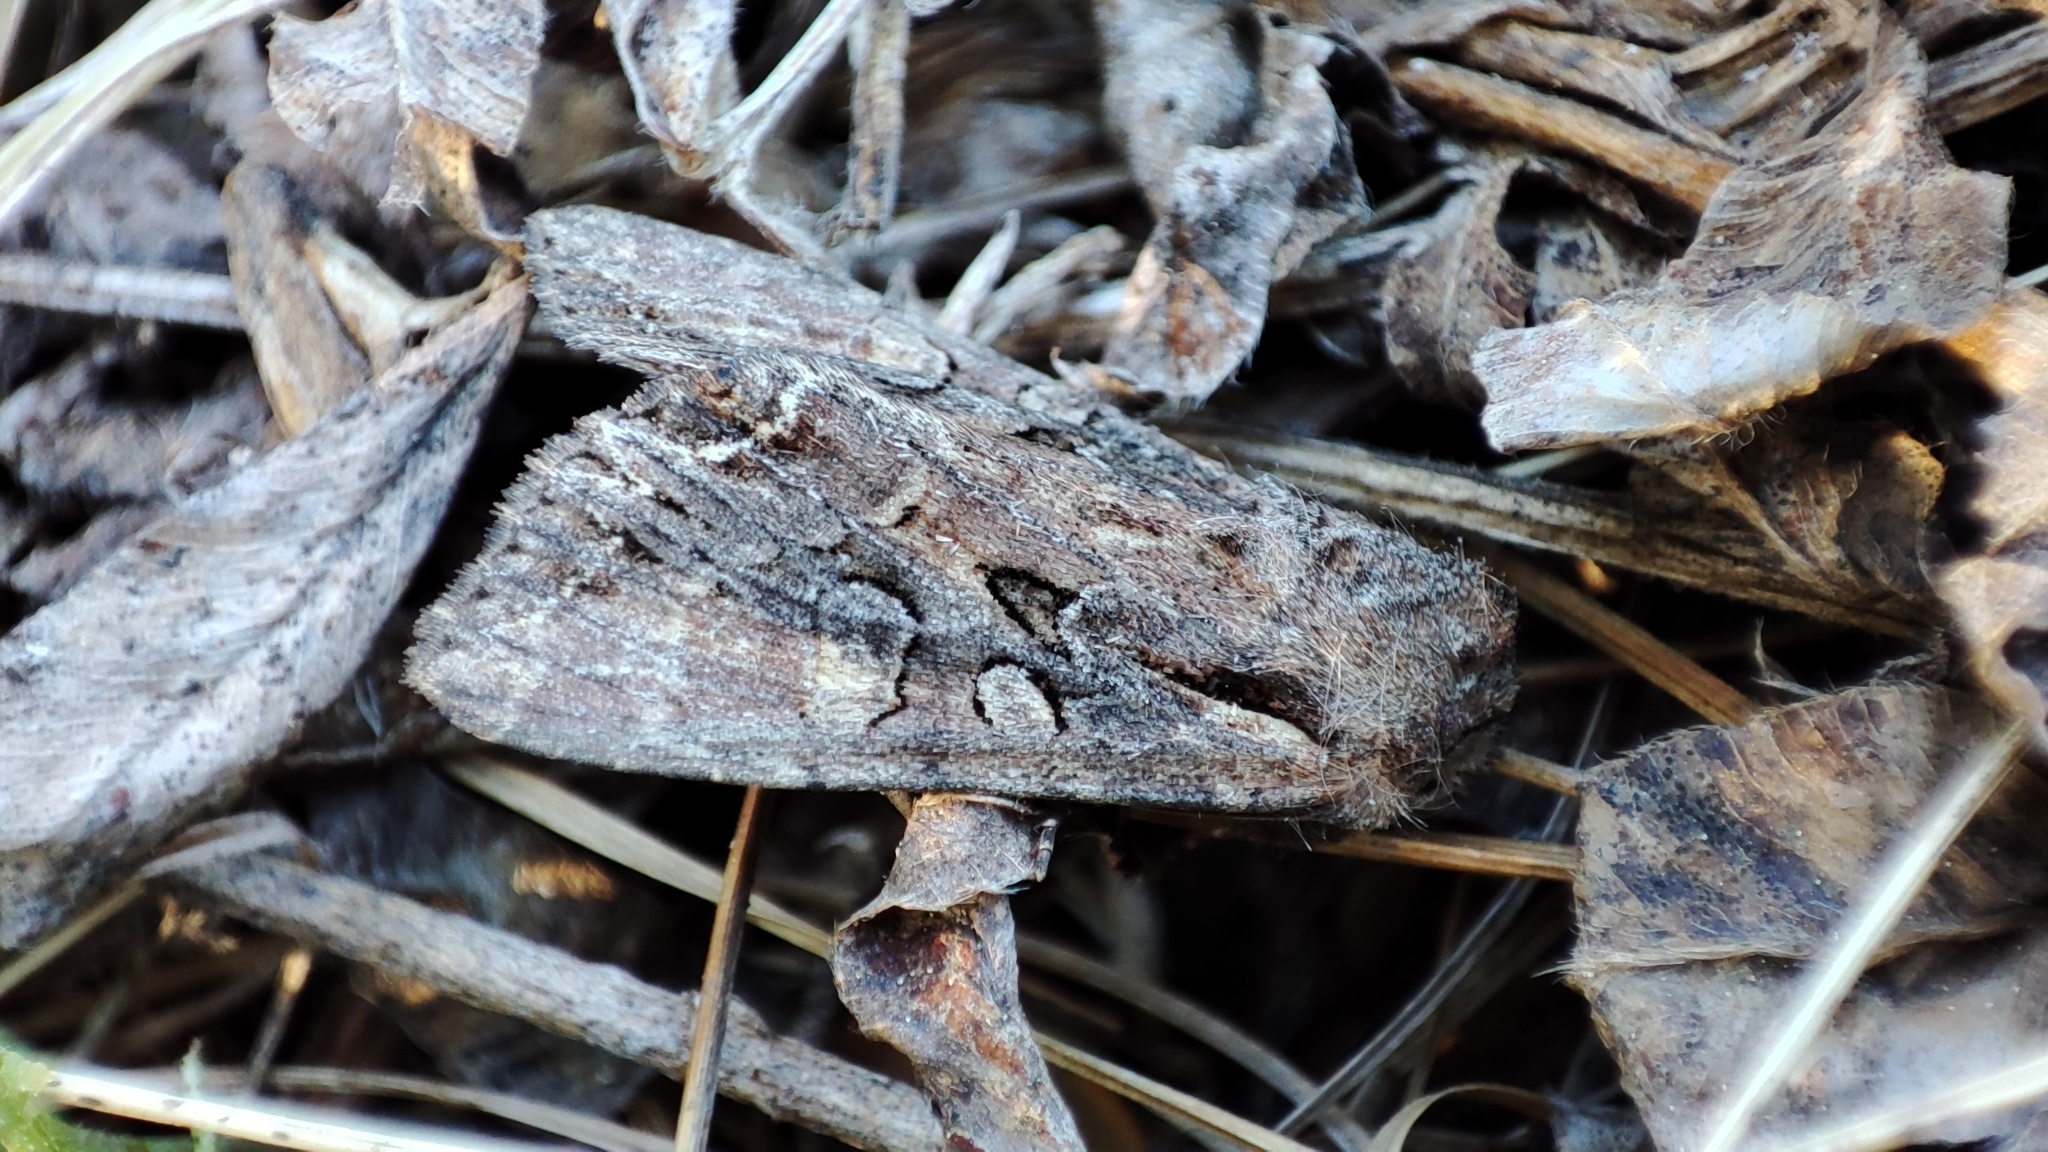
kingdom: Animalia
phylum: Arthropoda
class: Insecta
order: Lepidoptera
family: Noctuidae
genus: Lacanobia
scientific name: Lacanobia suasa
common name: Dog's tooth
